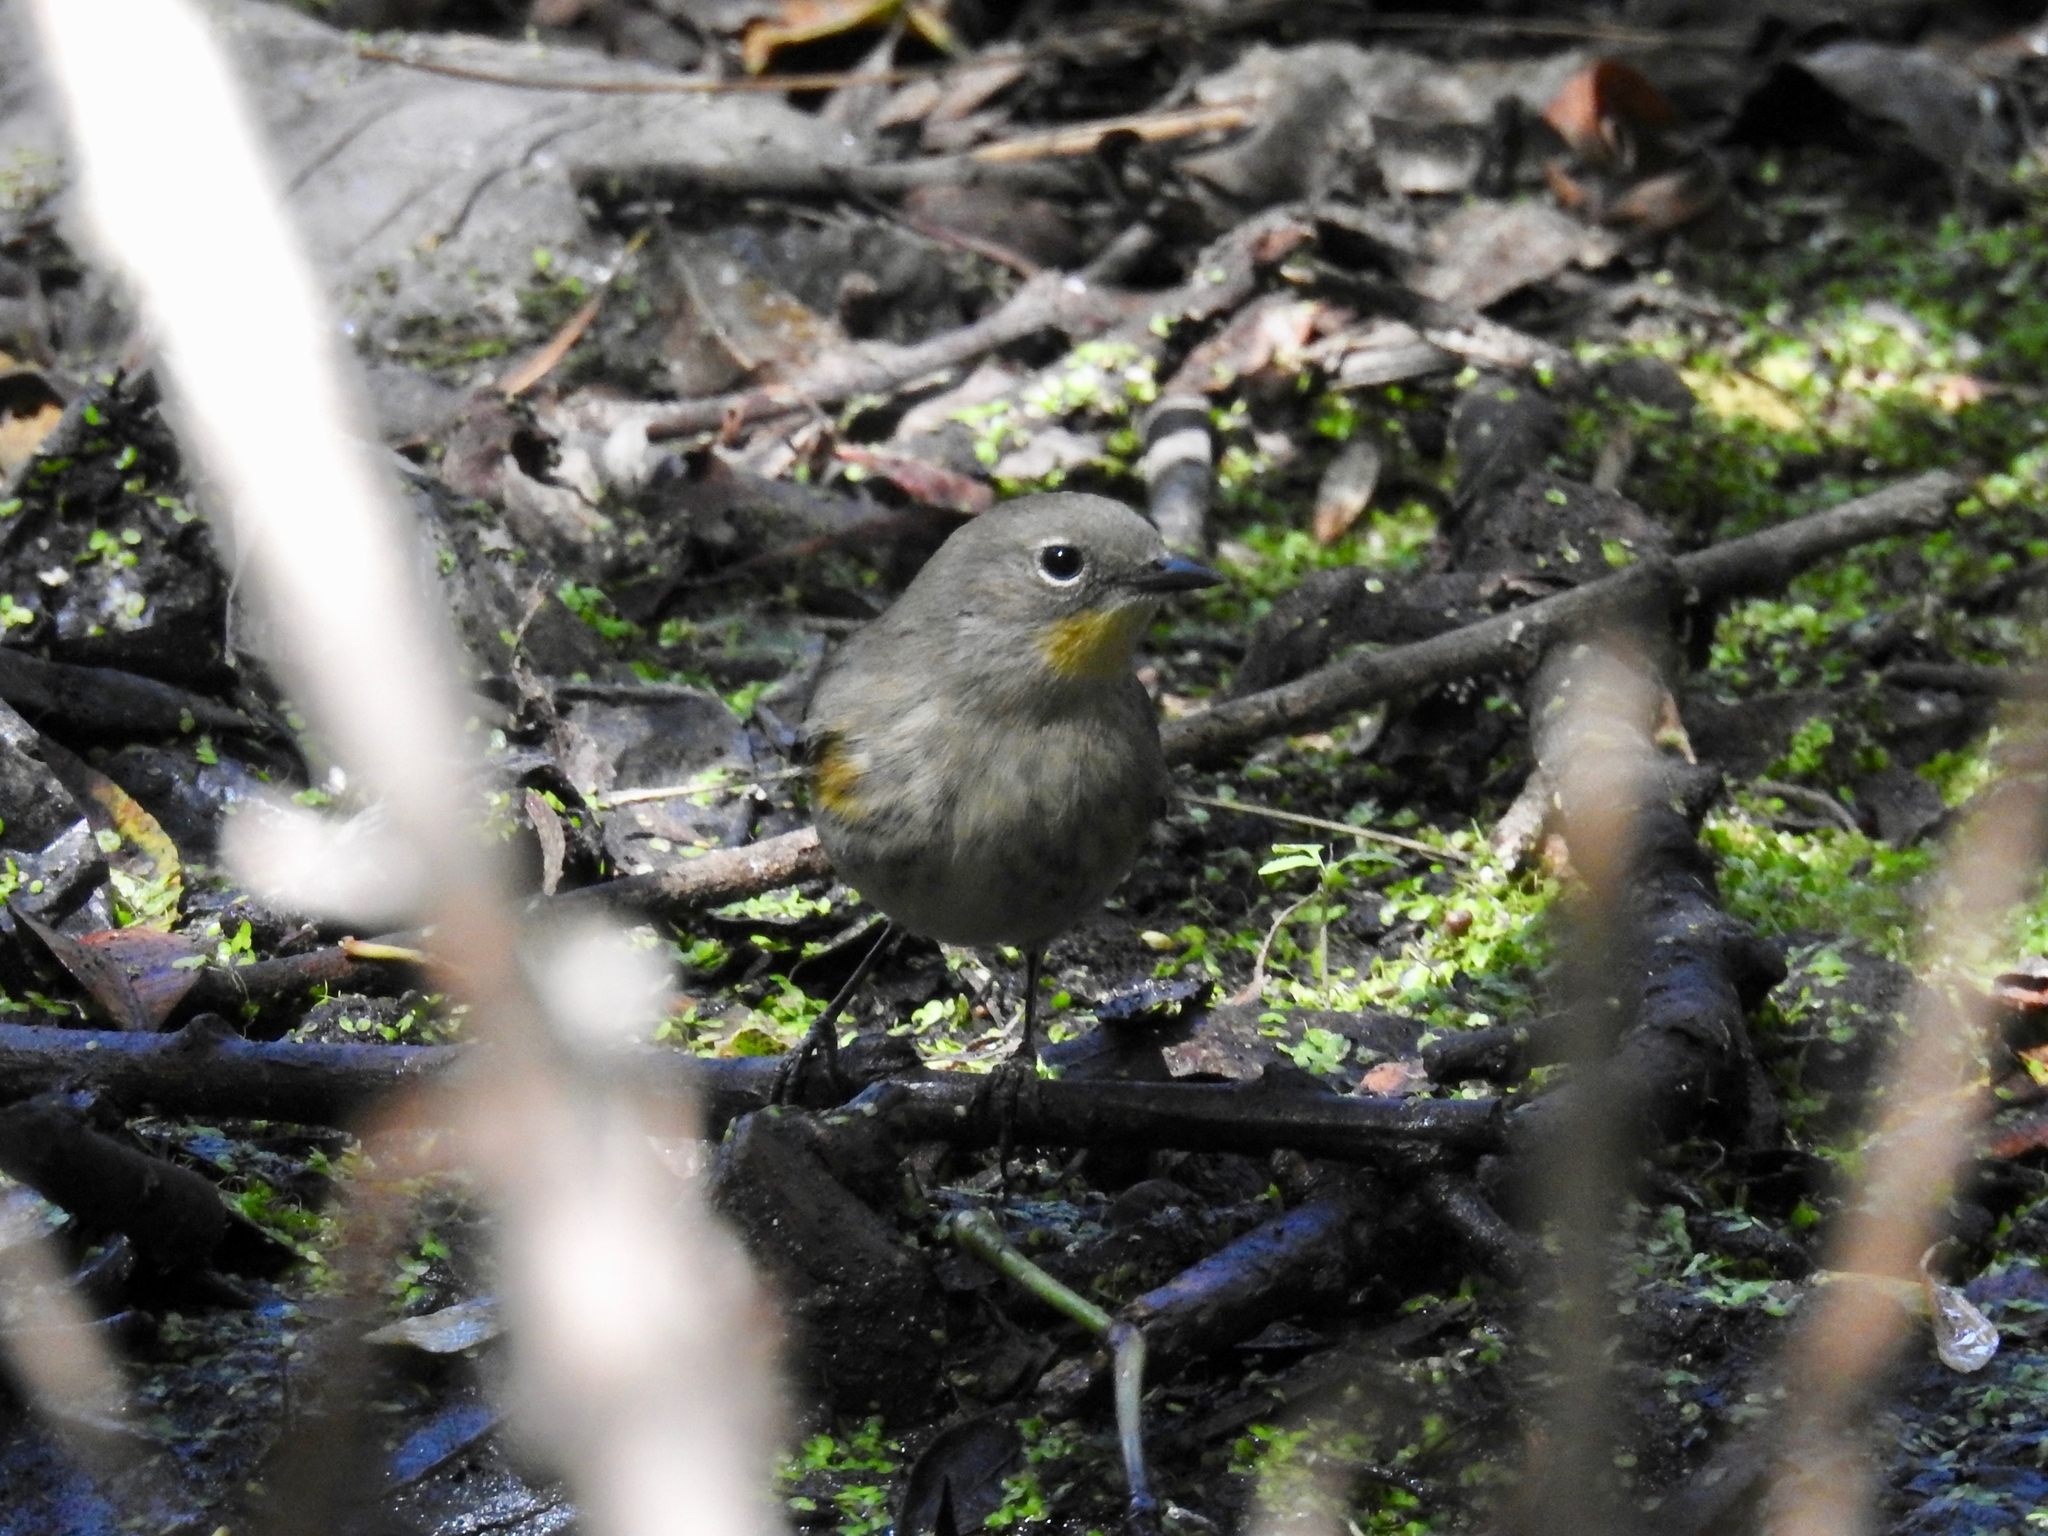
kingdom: Animalia
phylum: Chordata
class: Aves
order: Passeriformes
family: Parulidae
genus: Setophaga
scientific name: Setophaga coronata
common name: Myrtle warbler
